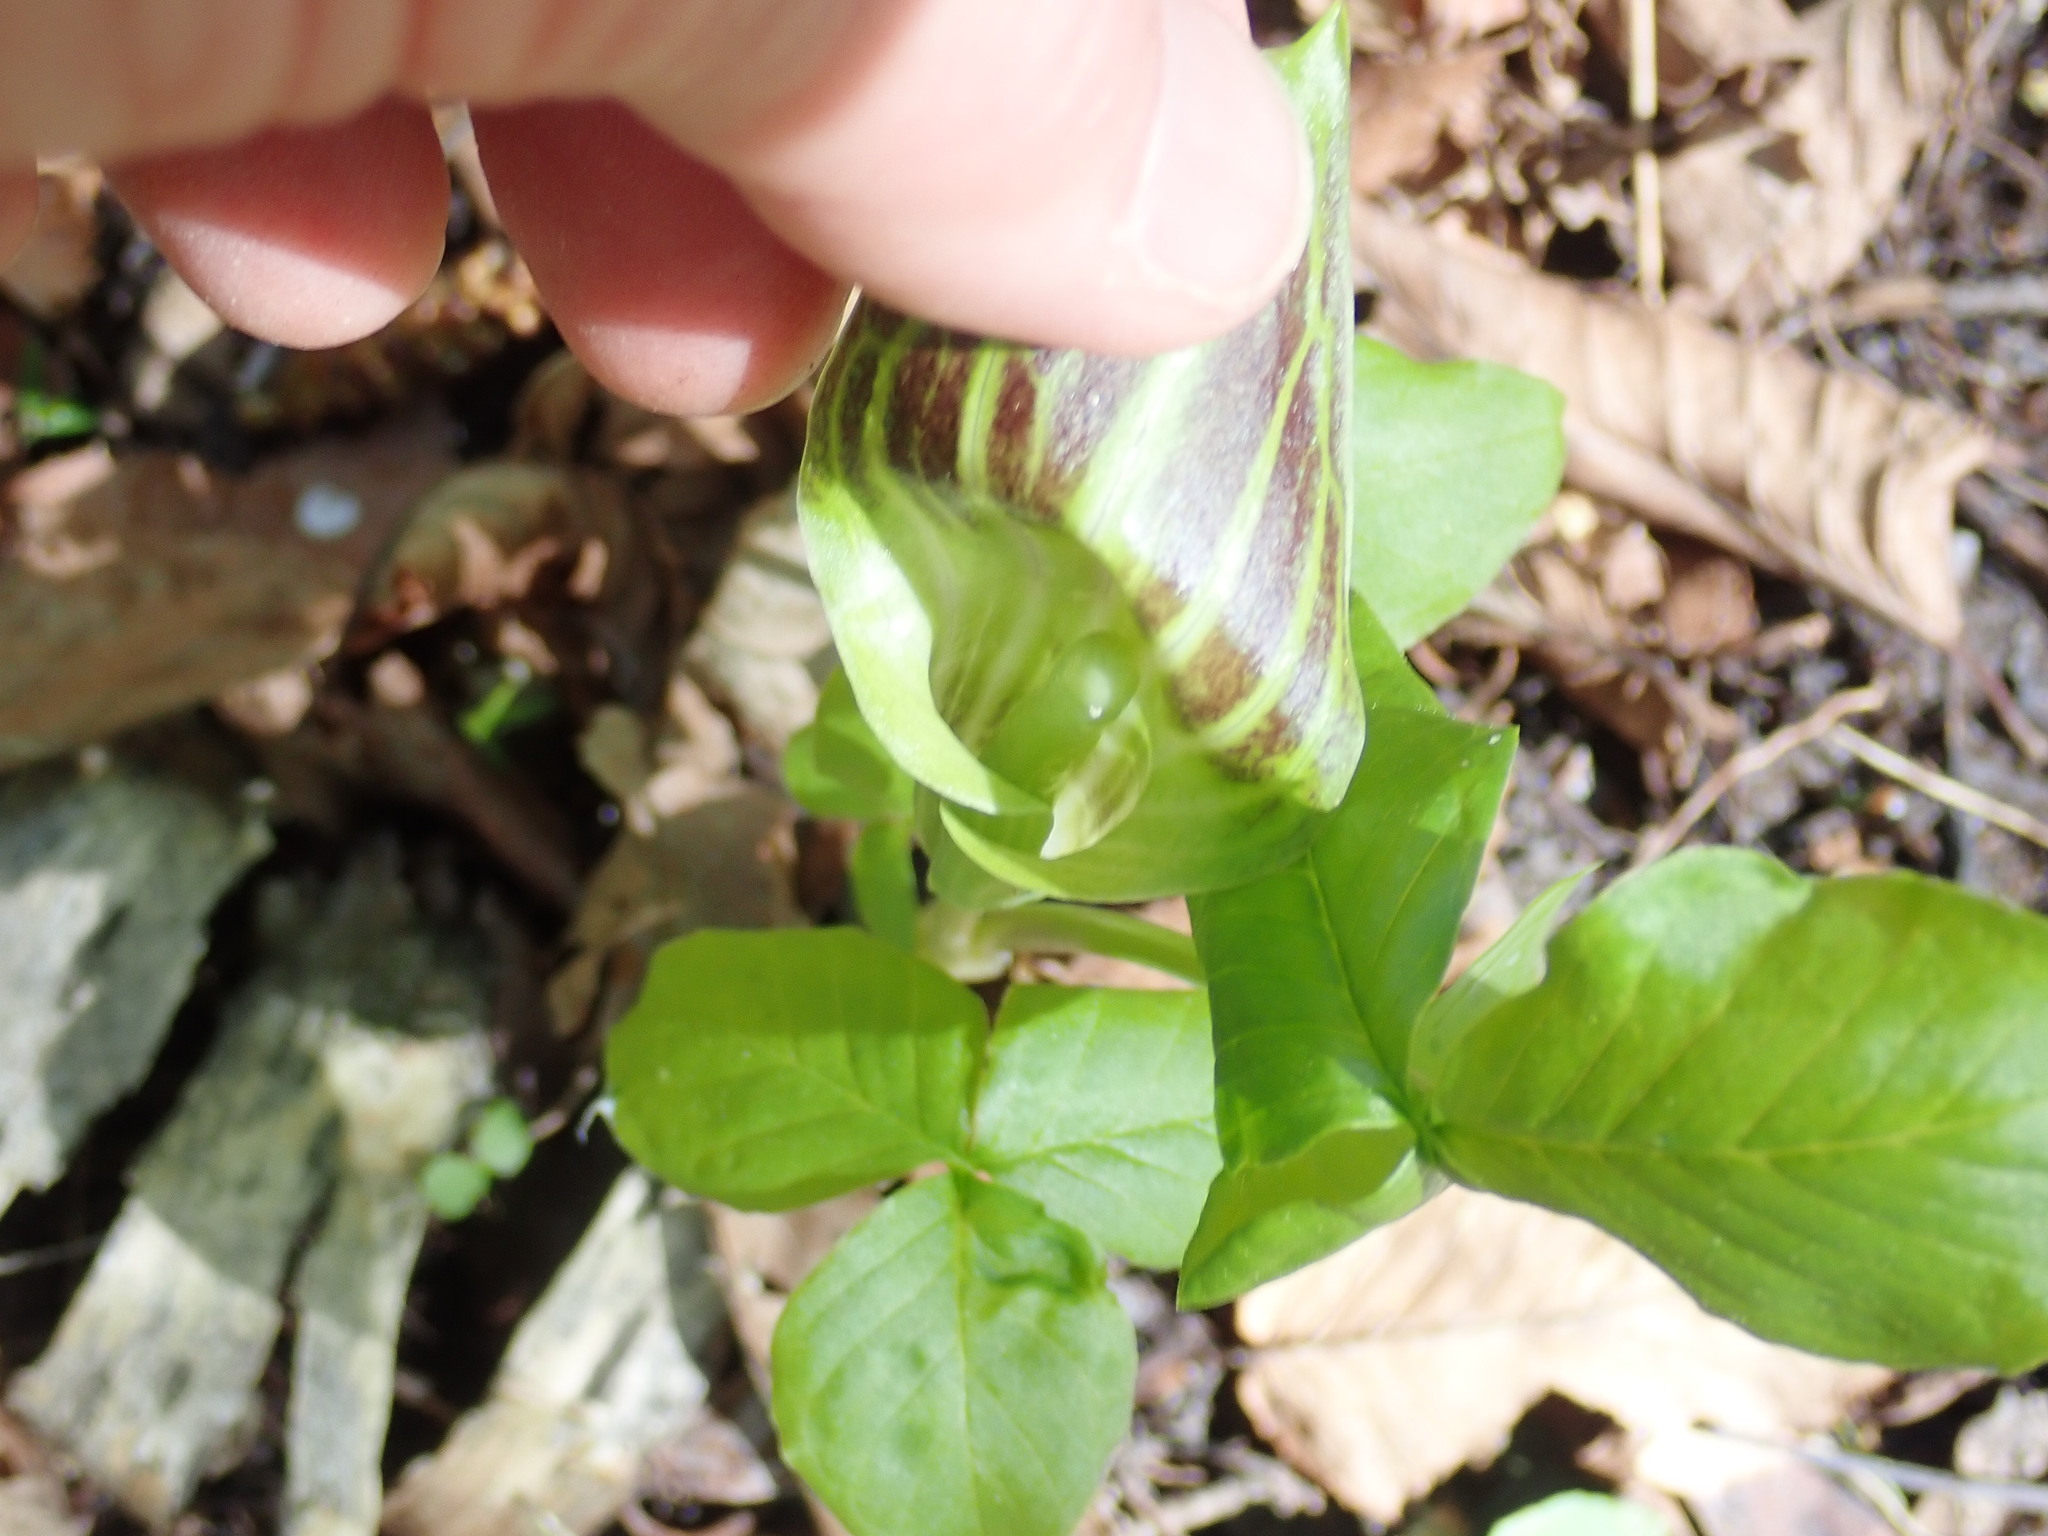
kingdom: Plantae
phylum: Tracheophyta
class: Liliopsida
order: Alismatales
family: Araceae
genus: Arisaema
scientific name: Arisaema triphyllum
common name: Jack-in-the-pulpit
